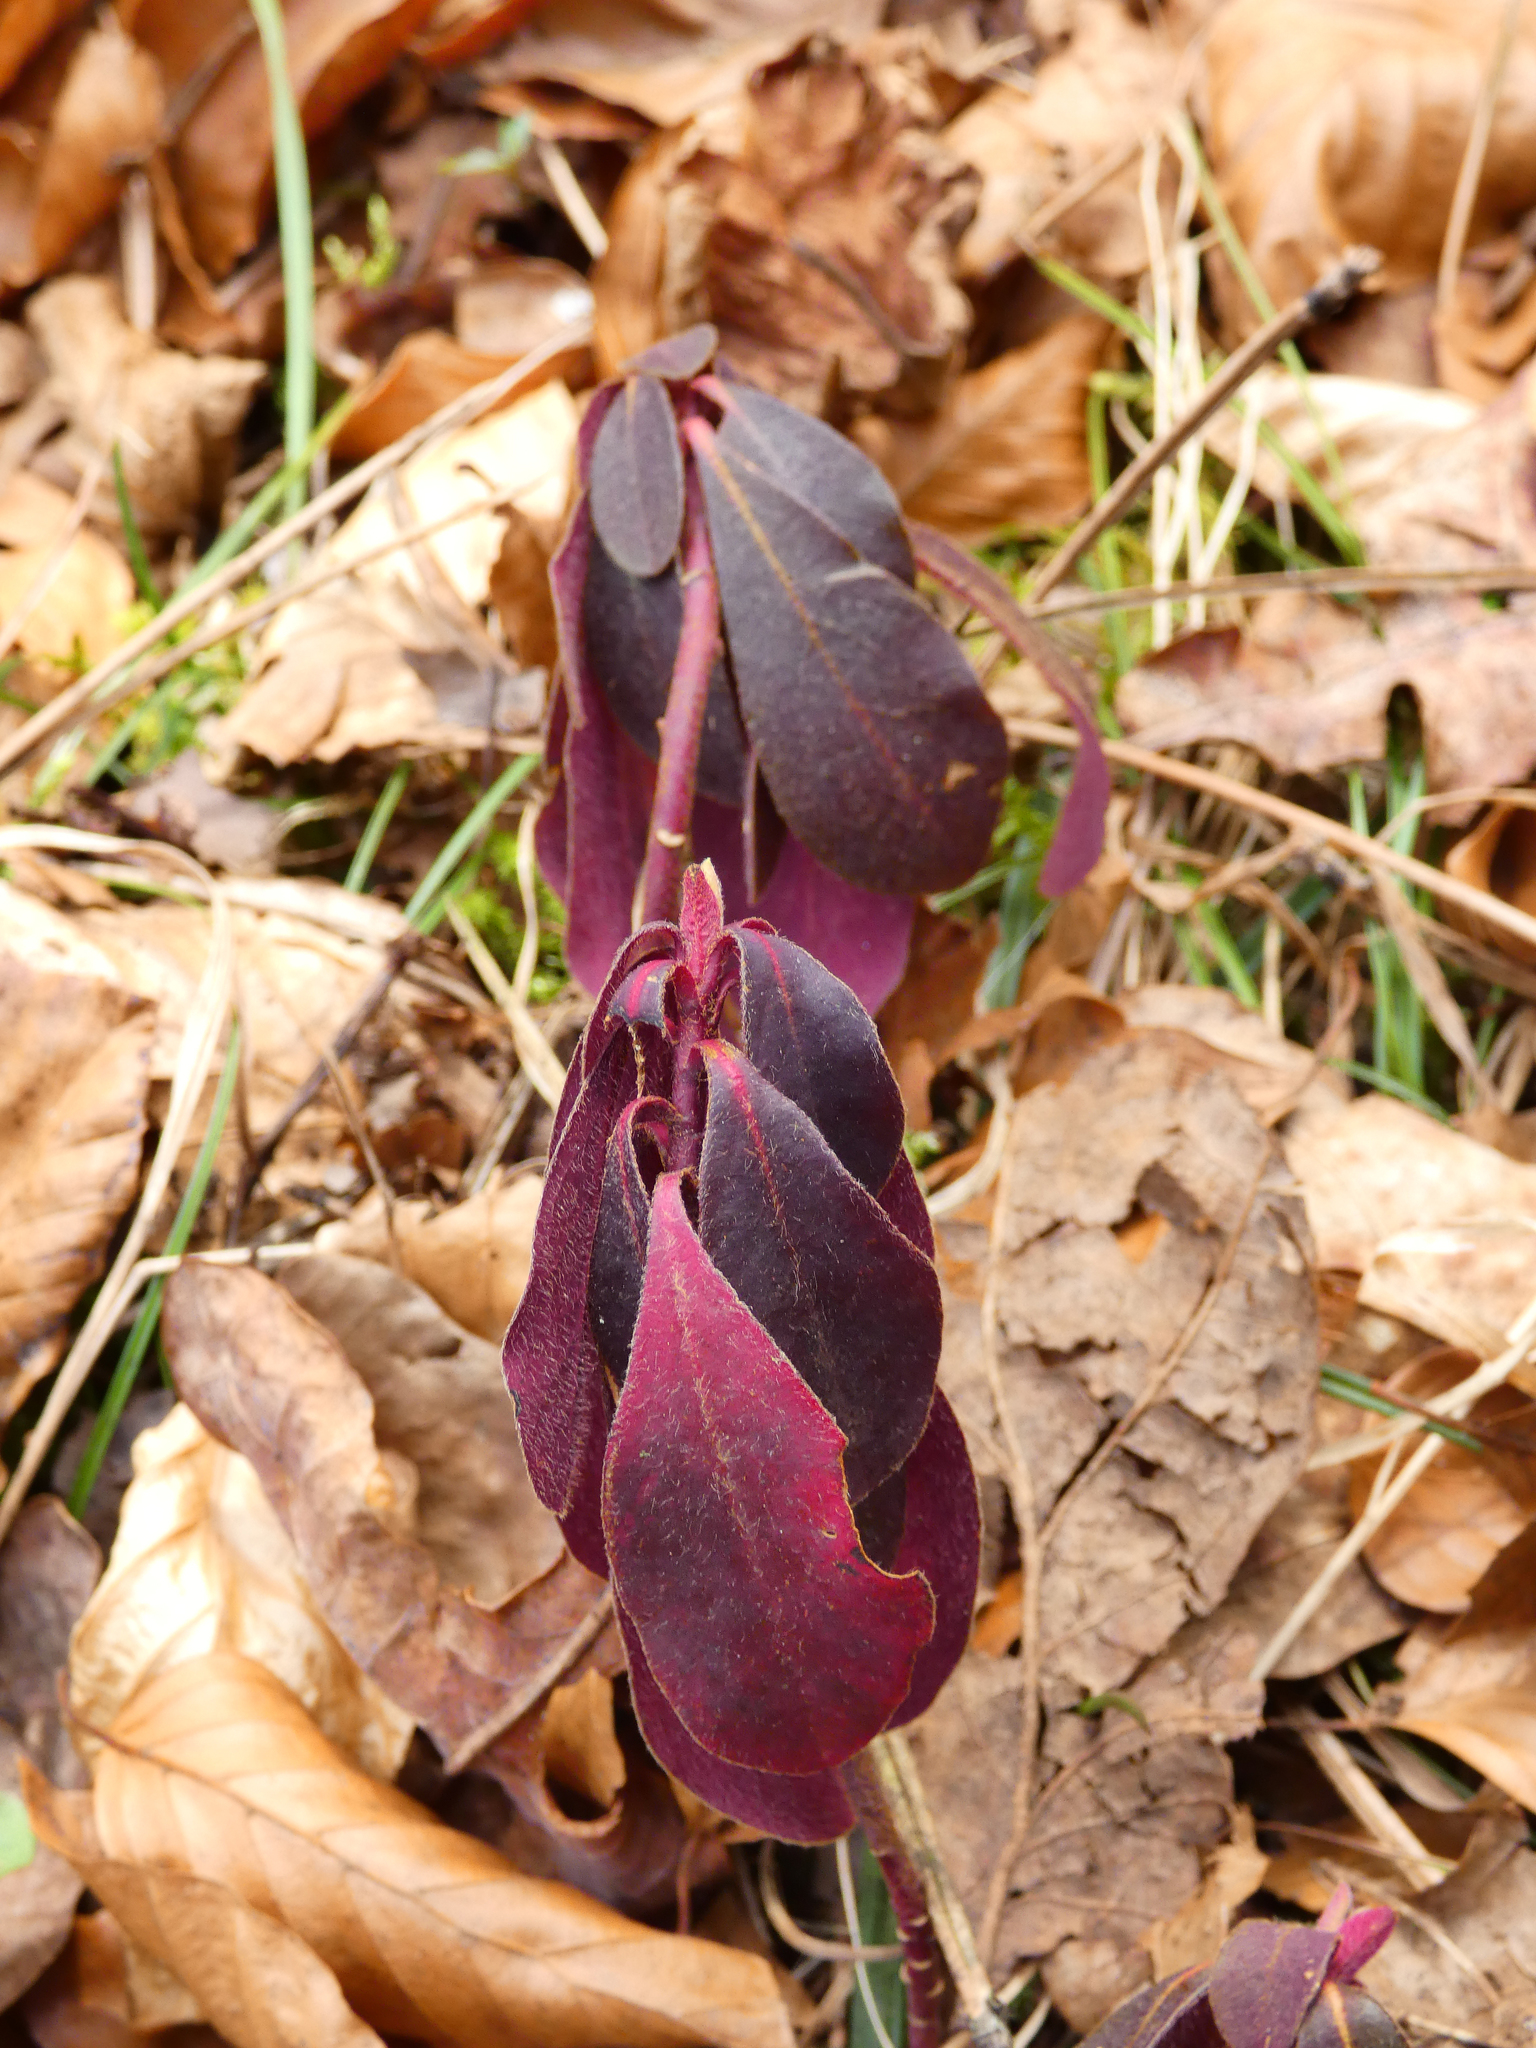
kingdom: Plantae
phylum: Tracheophyta
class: Magnoliopsida
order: Malpighiales
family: Euphorbiaceae
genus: Euphorbia
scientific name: Euphorbia amygdaloides
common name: Wood spurge
